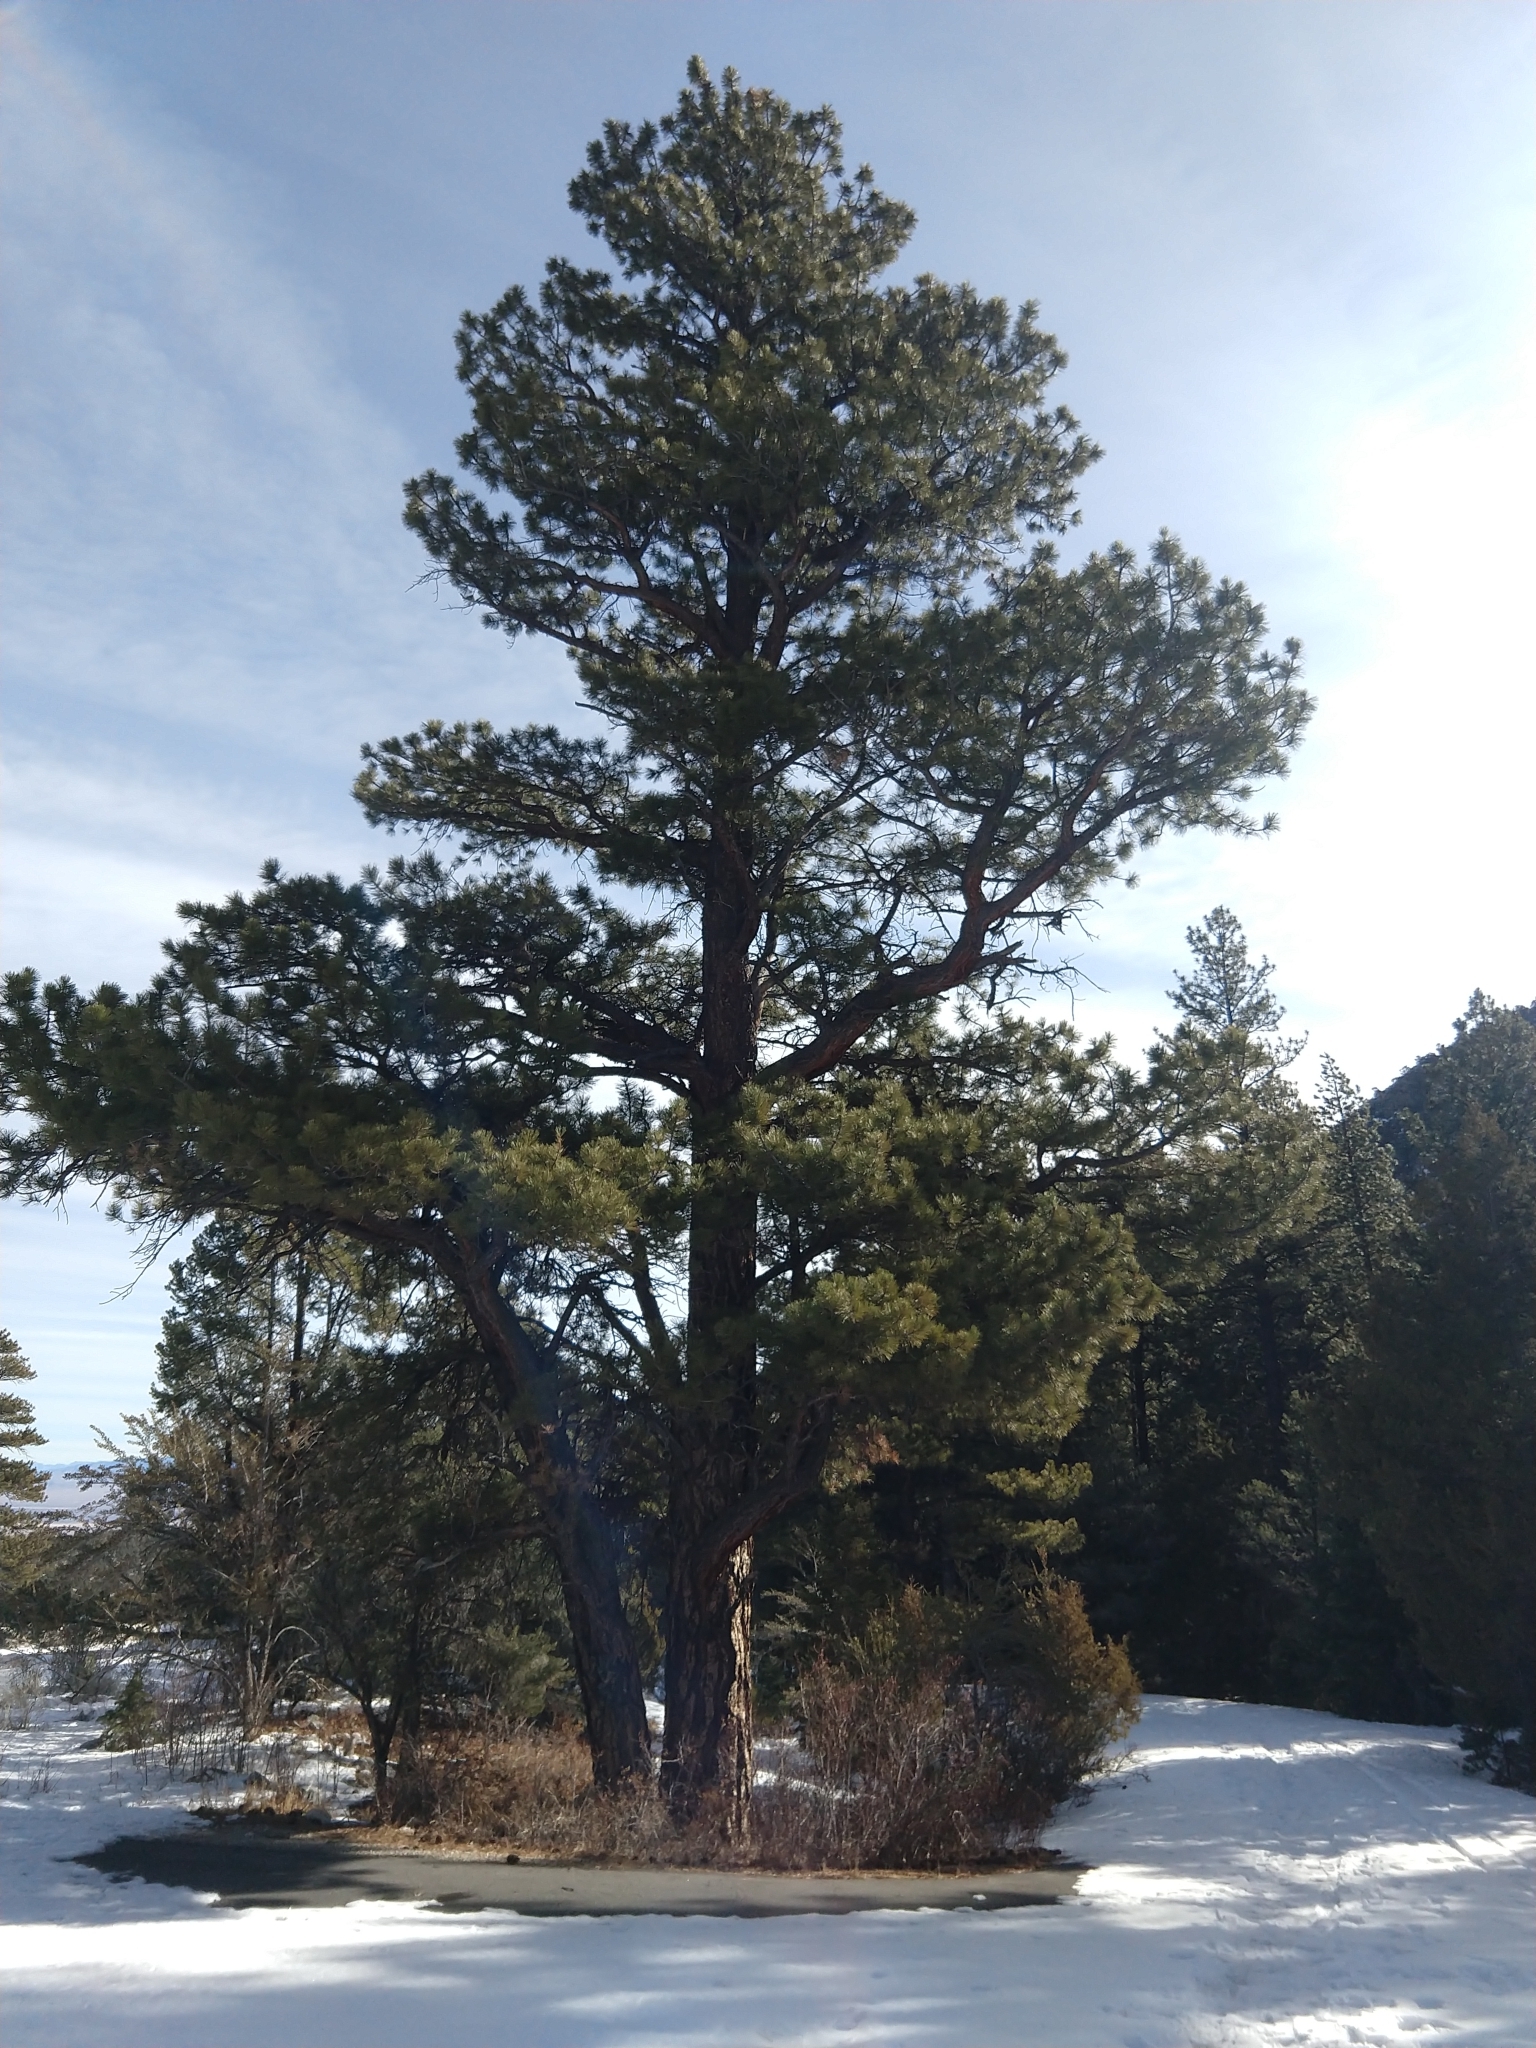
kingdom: Plantae
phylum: Tracheophyta
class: Pinopsida
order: Pinales
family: Pinaceae
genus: Pinus
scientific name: Pinus ponderosa
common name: Western yellow-pine
